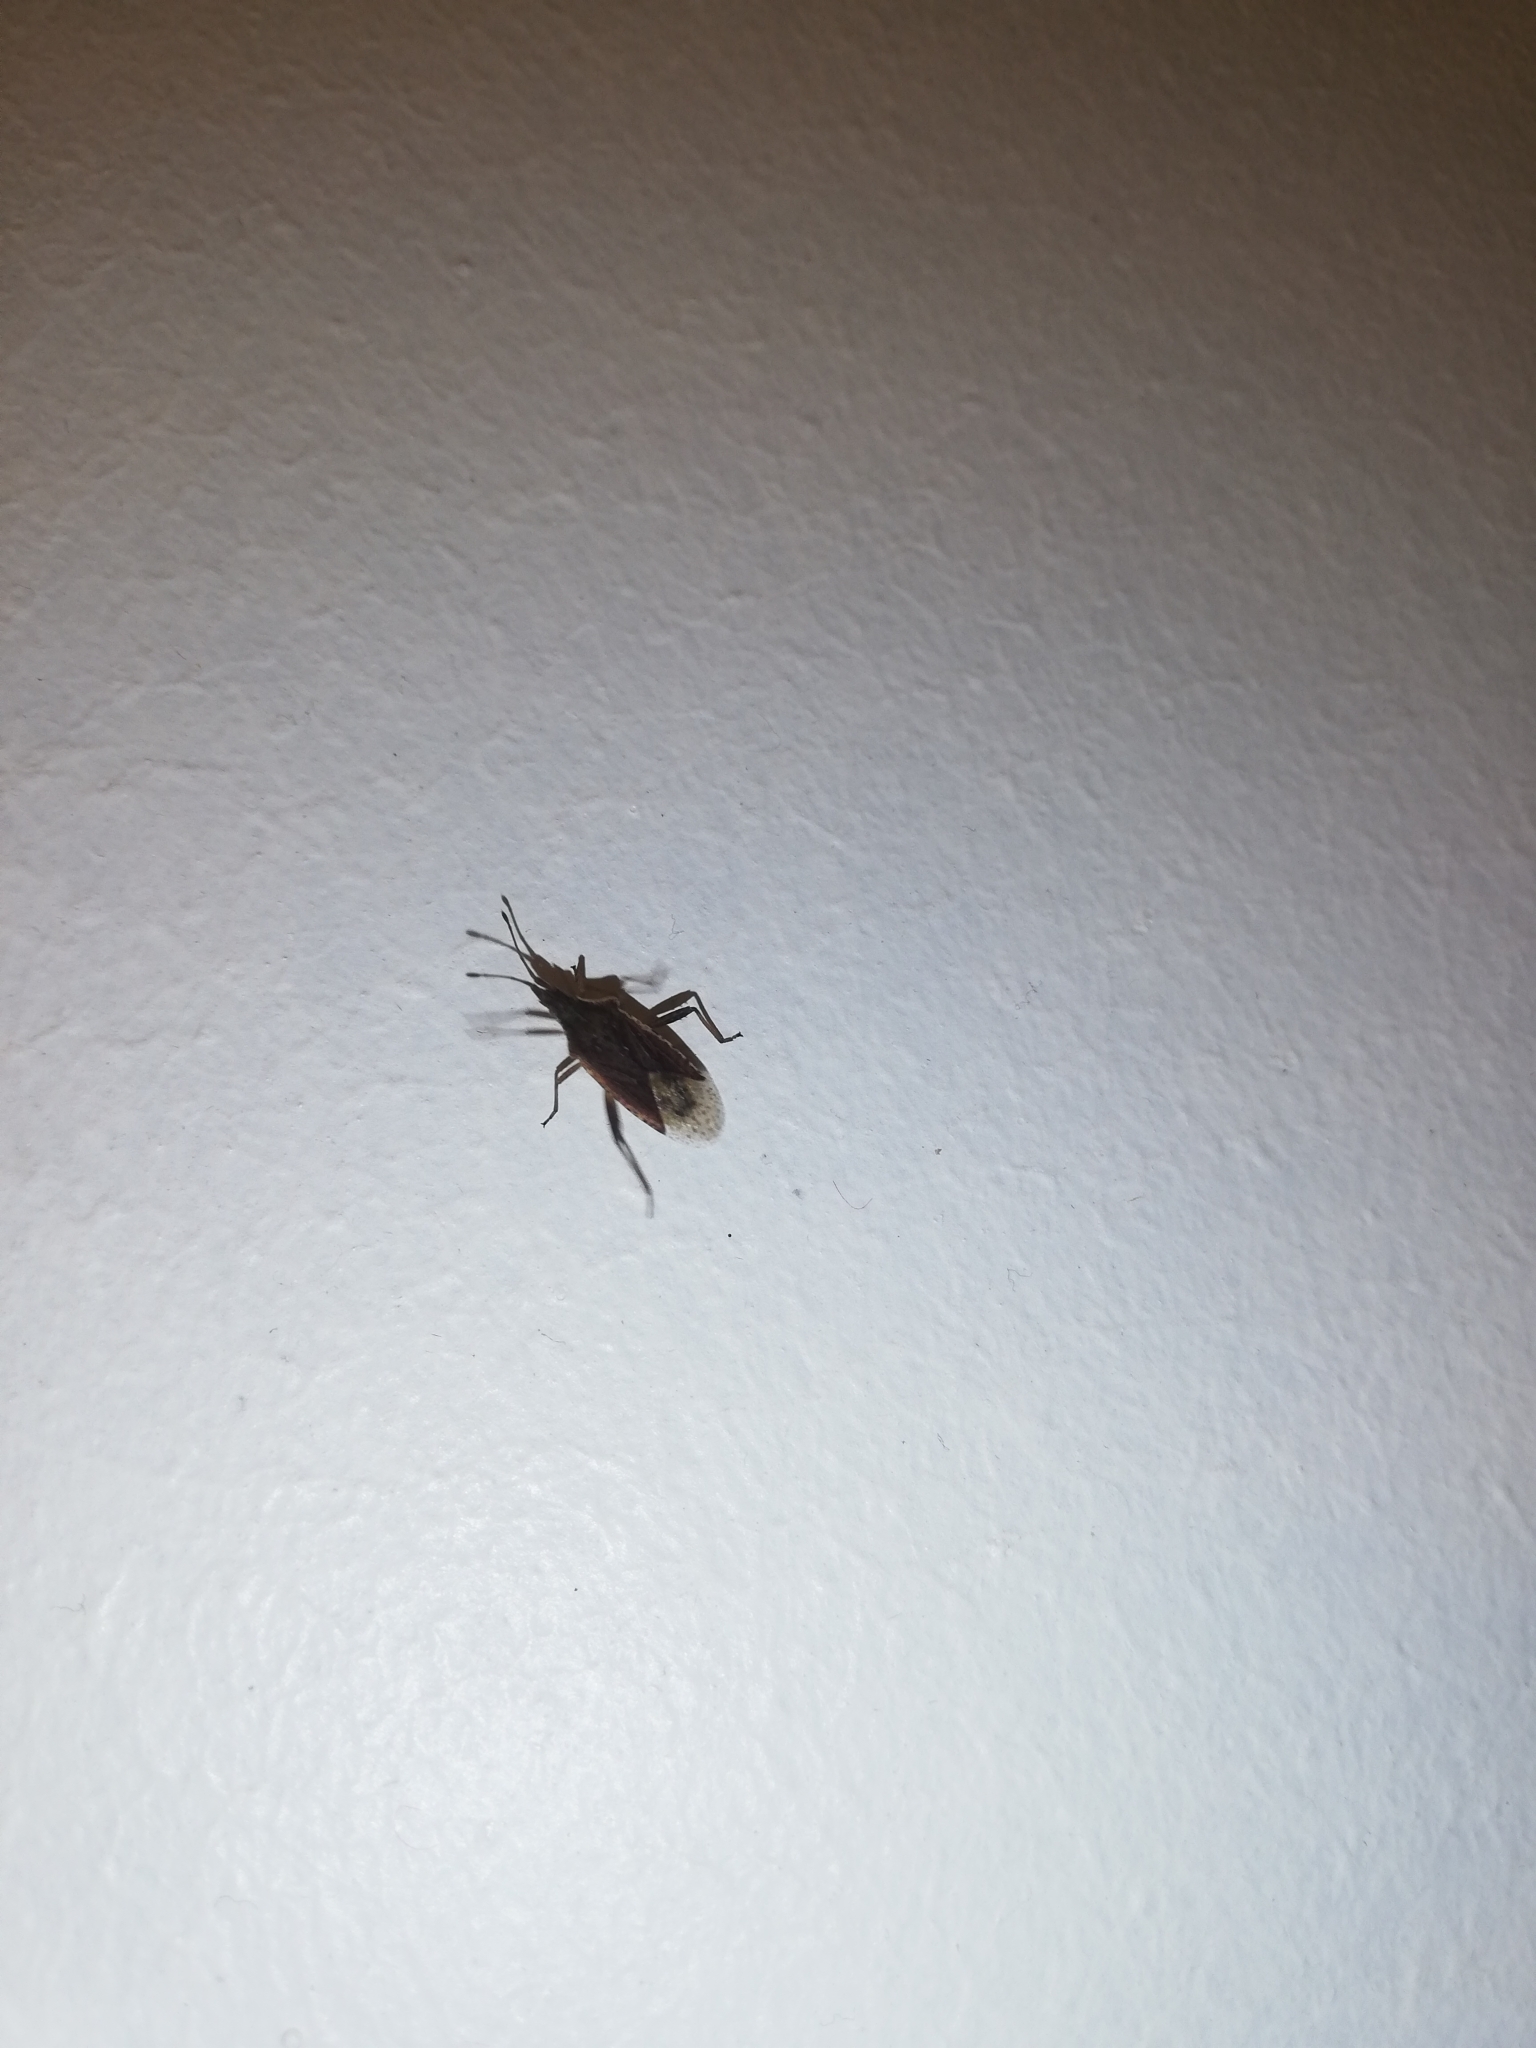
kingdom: Animalia
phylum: Arthropoda
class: Insecta
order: Hemiptera
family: Rhopalidae
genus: Harmostes
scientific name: Harmostes
